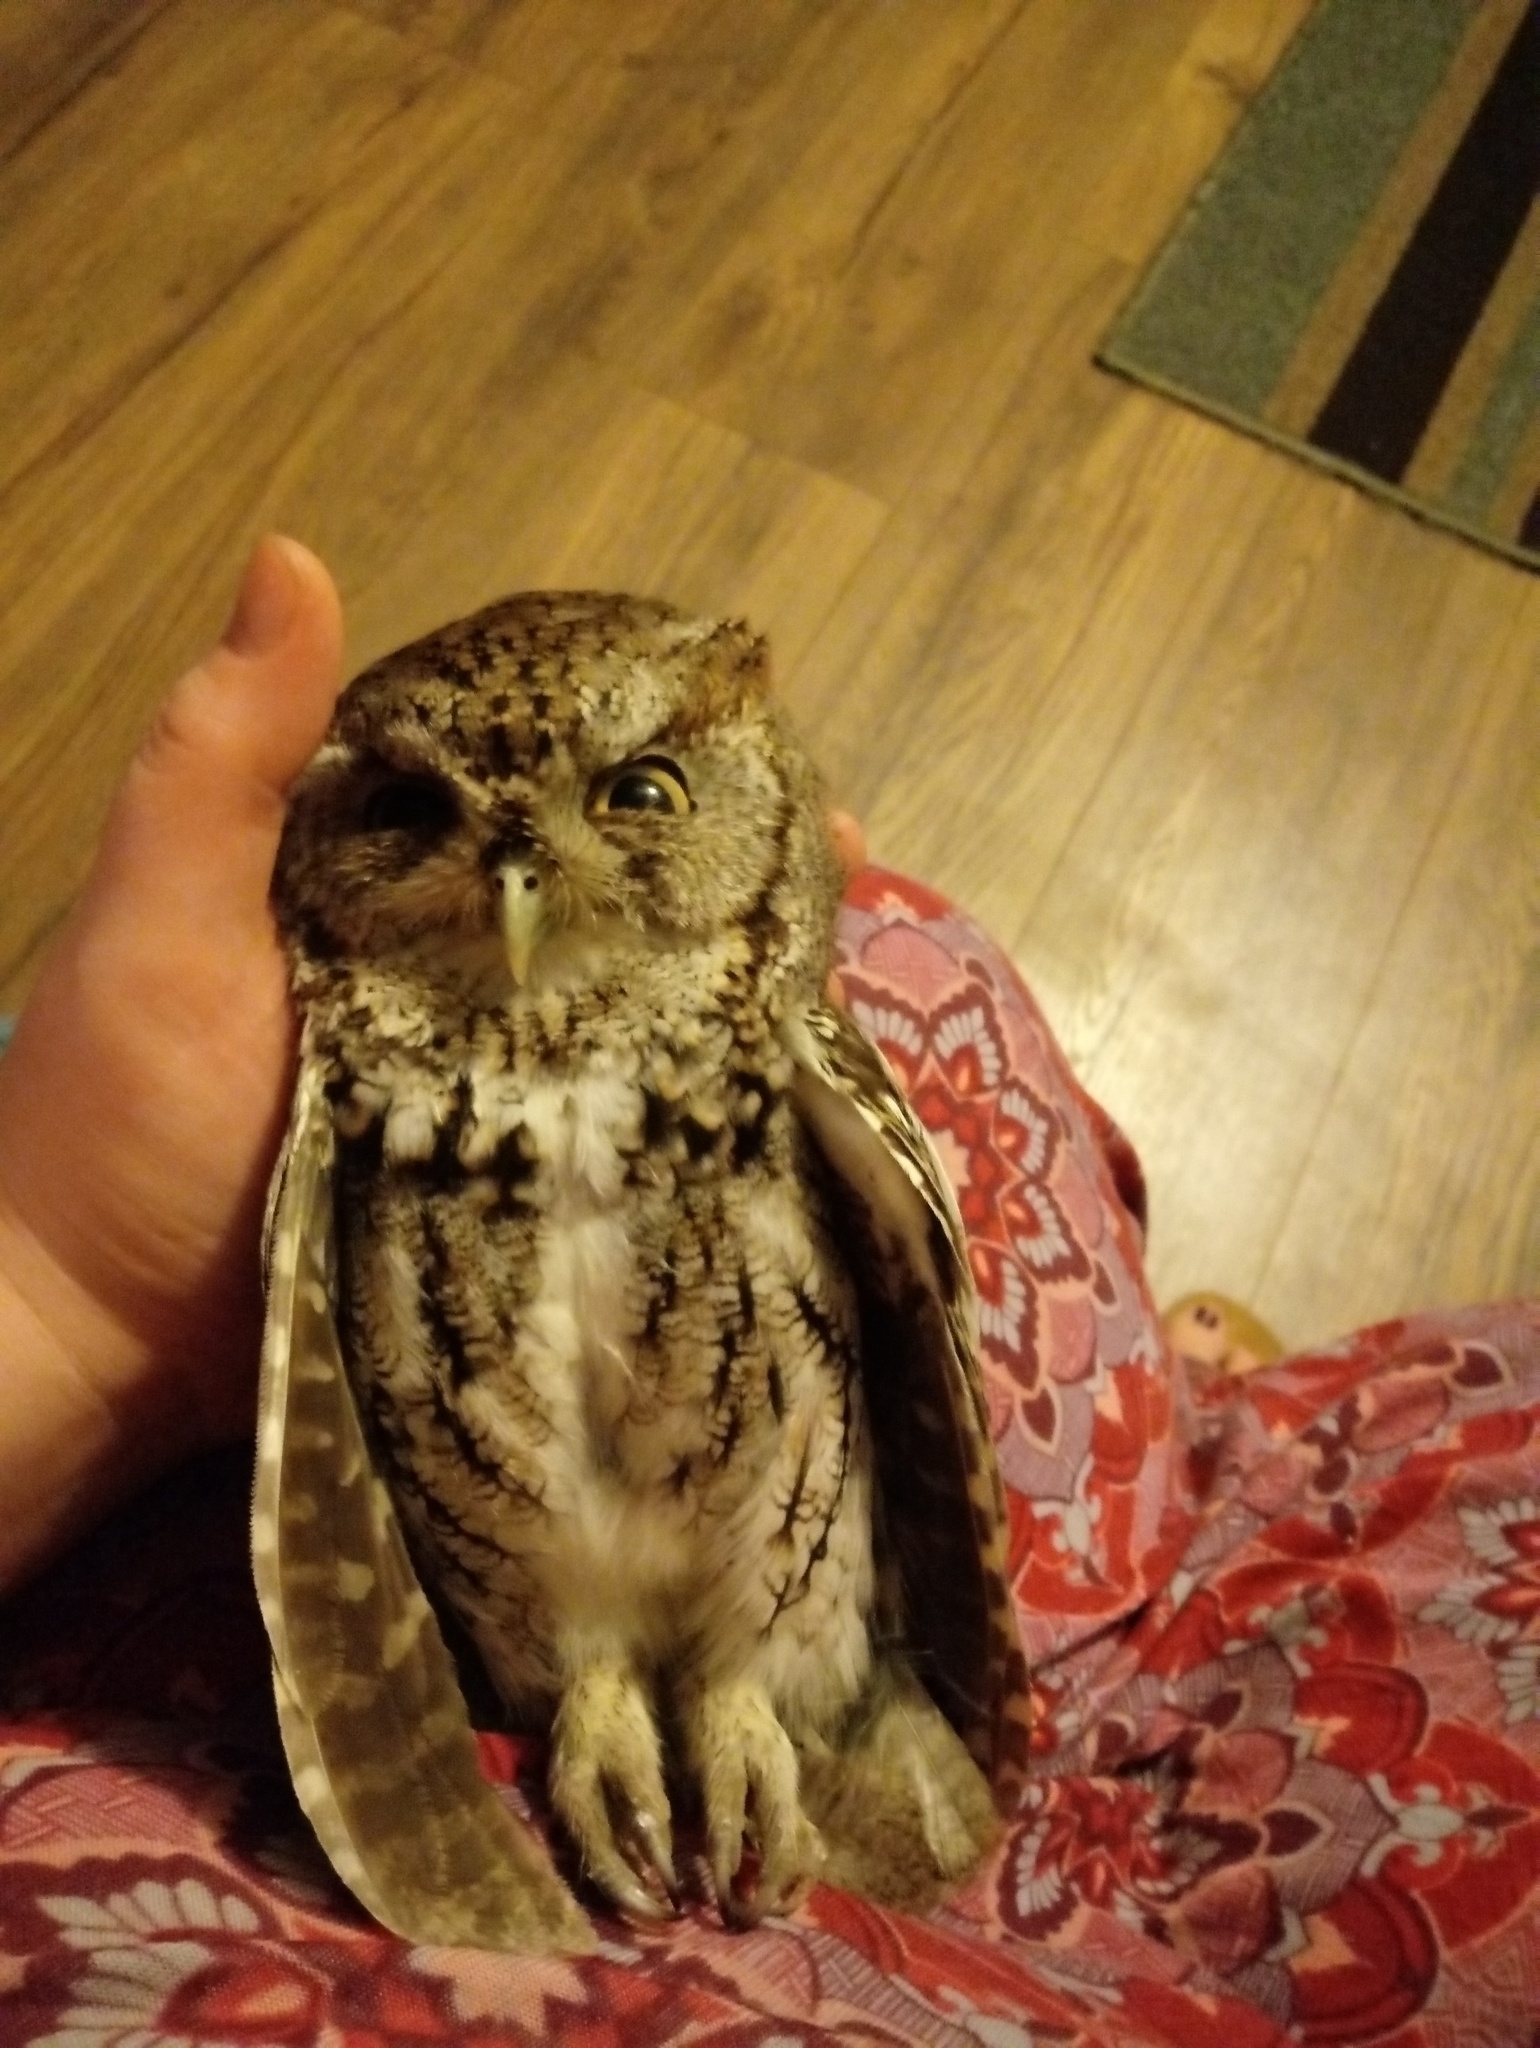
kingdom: Animalia
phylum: Chordata
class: Aves
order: Strigiformes
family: Strigidae
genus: Megascops
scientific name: Megascops asio
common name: Eastern screech-owl
